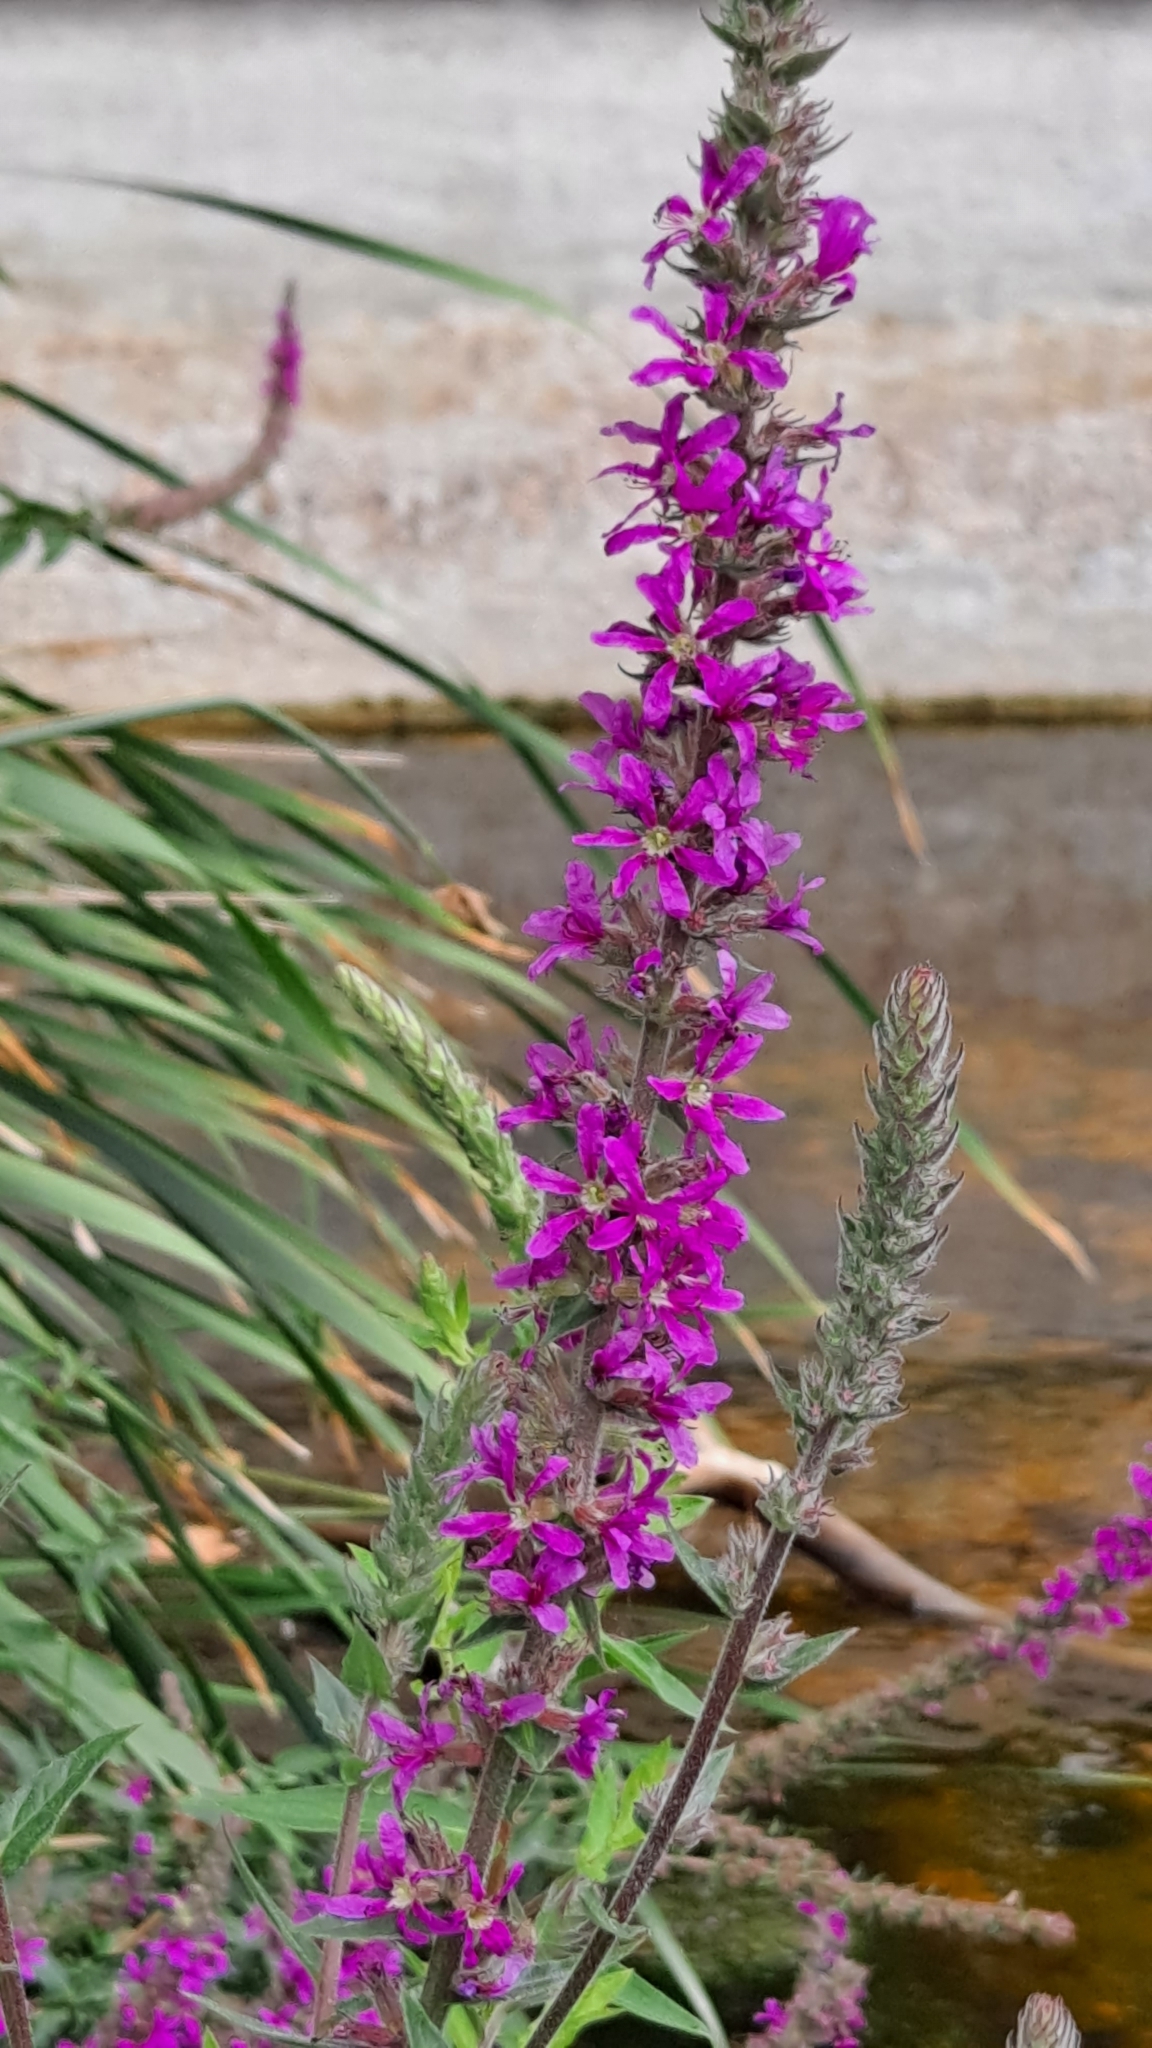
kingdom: Plantae
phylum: Tracheophyta
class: Magnoliopsida
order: Myrtales
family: Lythraceae
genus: Lythrum
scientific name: Lythrum salicaria
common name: Purple loosestrife
